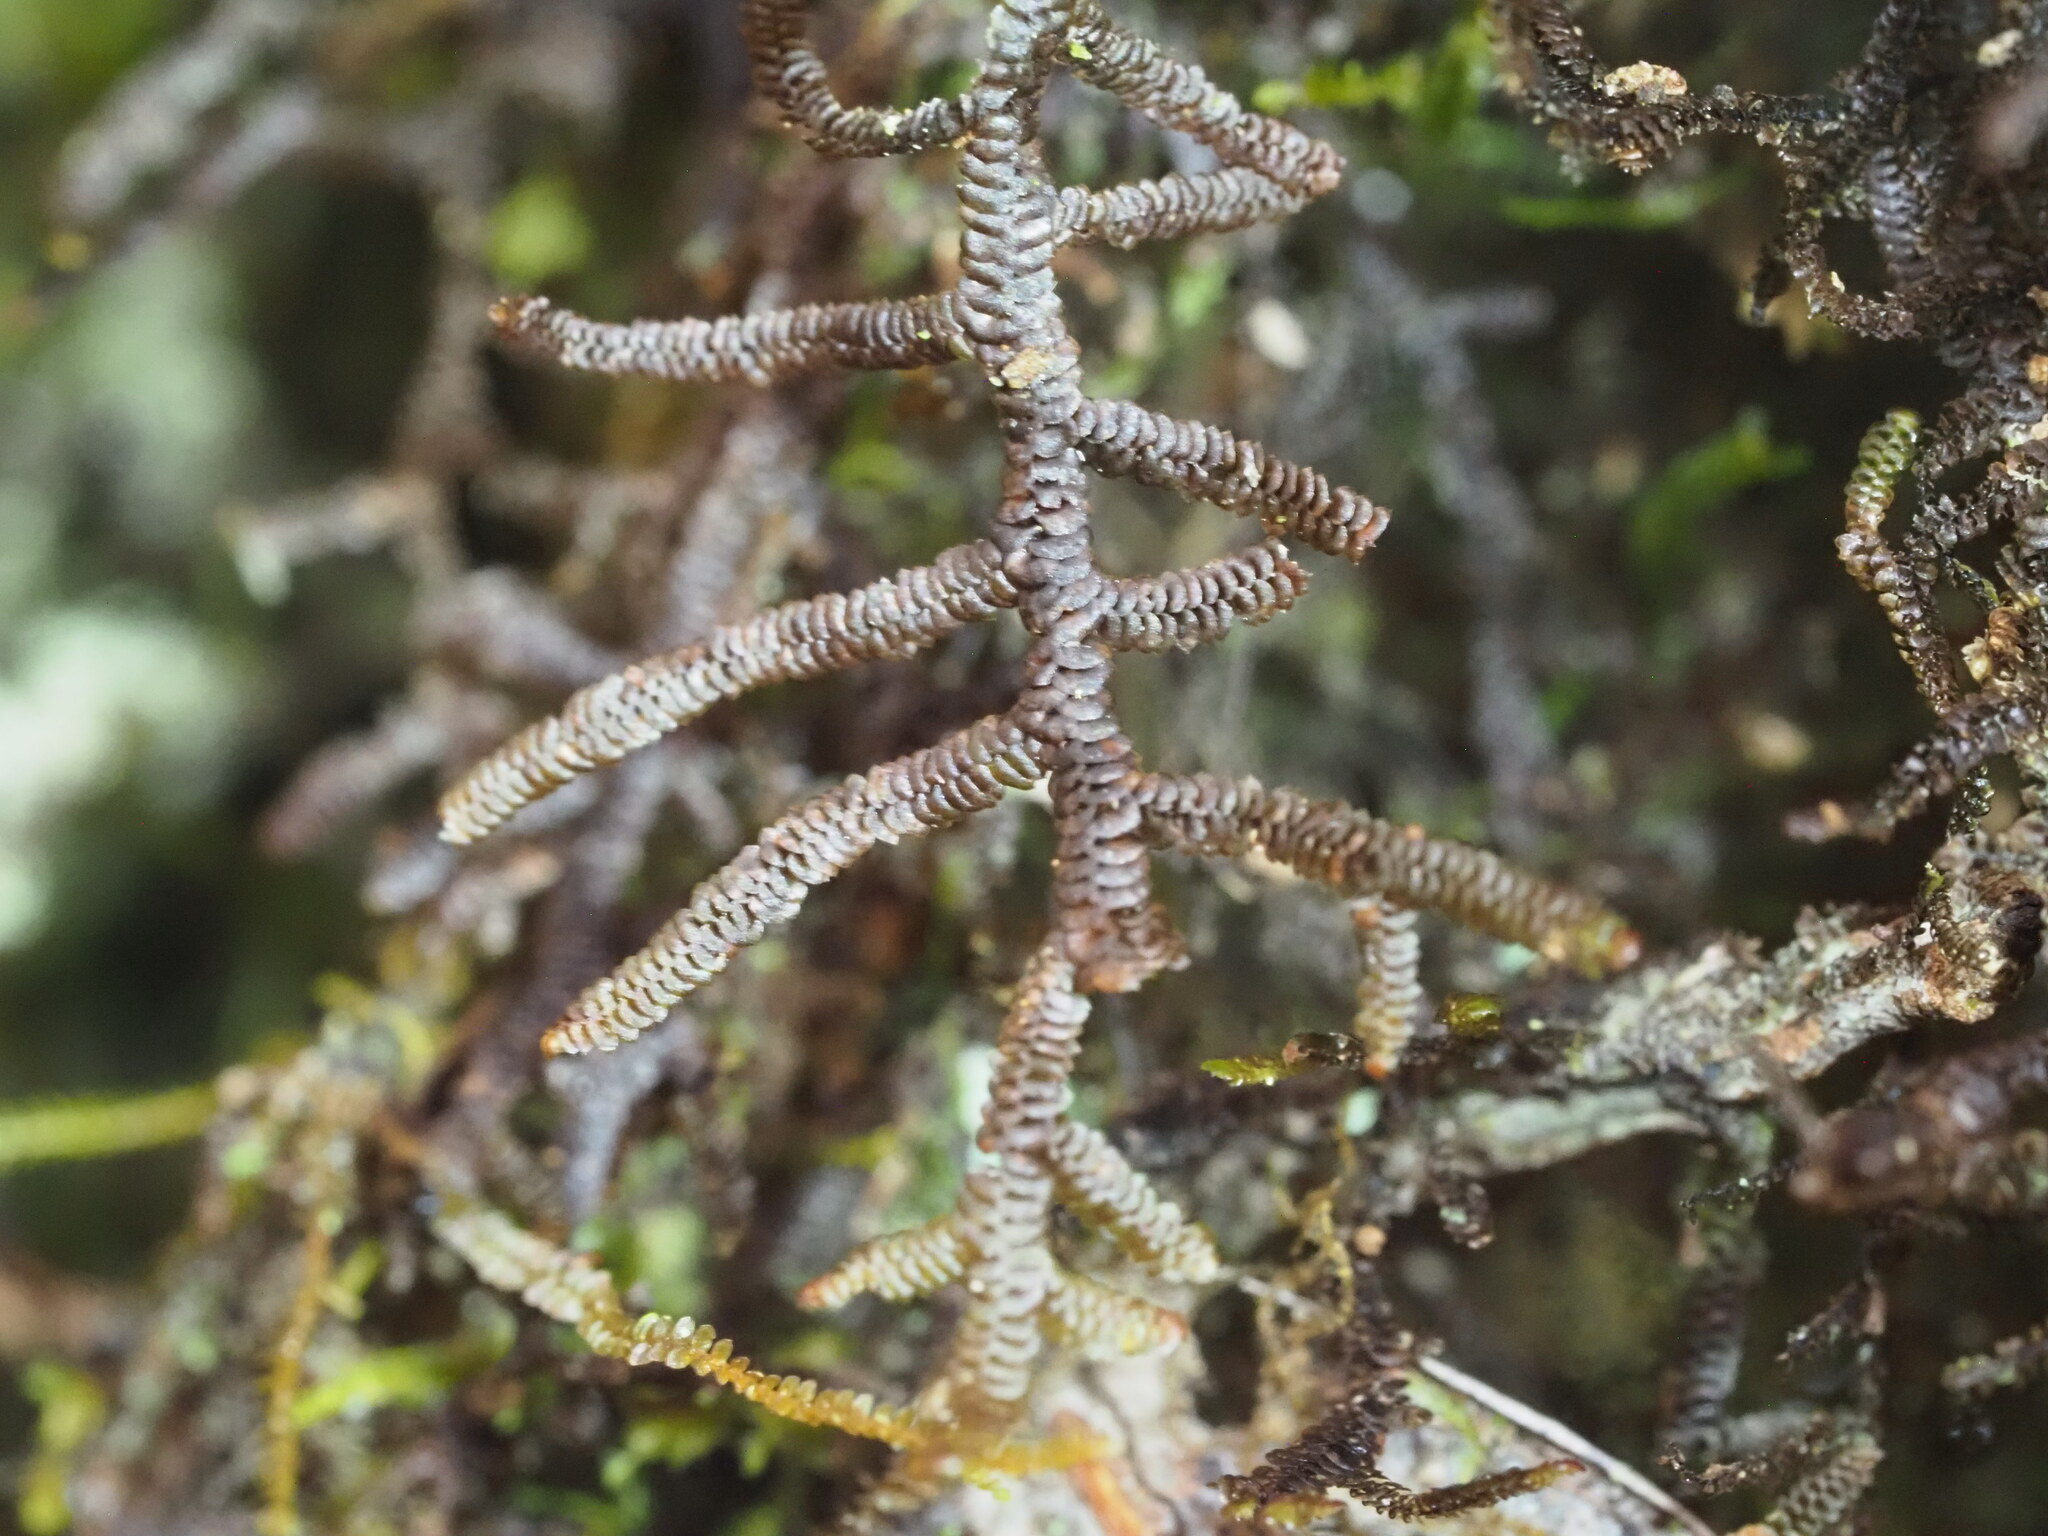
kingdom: Plantae
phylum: Marchantiophyta
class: Jungermanniopsida
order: Porellales
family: Frullaniaceae
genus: Frullania
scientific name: Frullania apiculata
